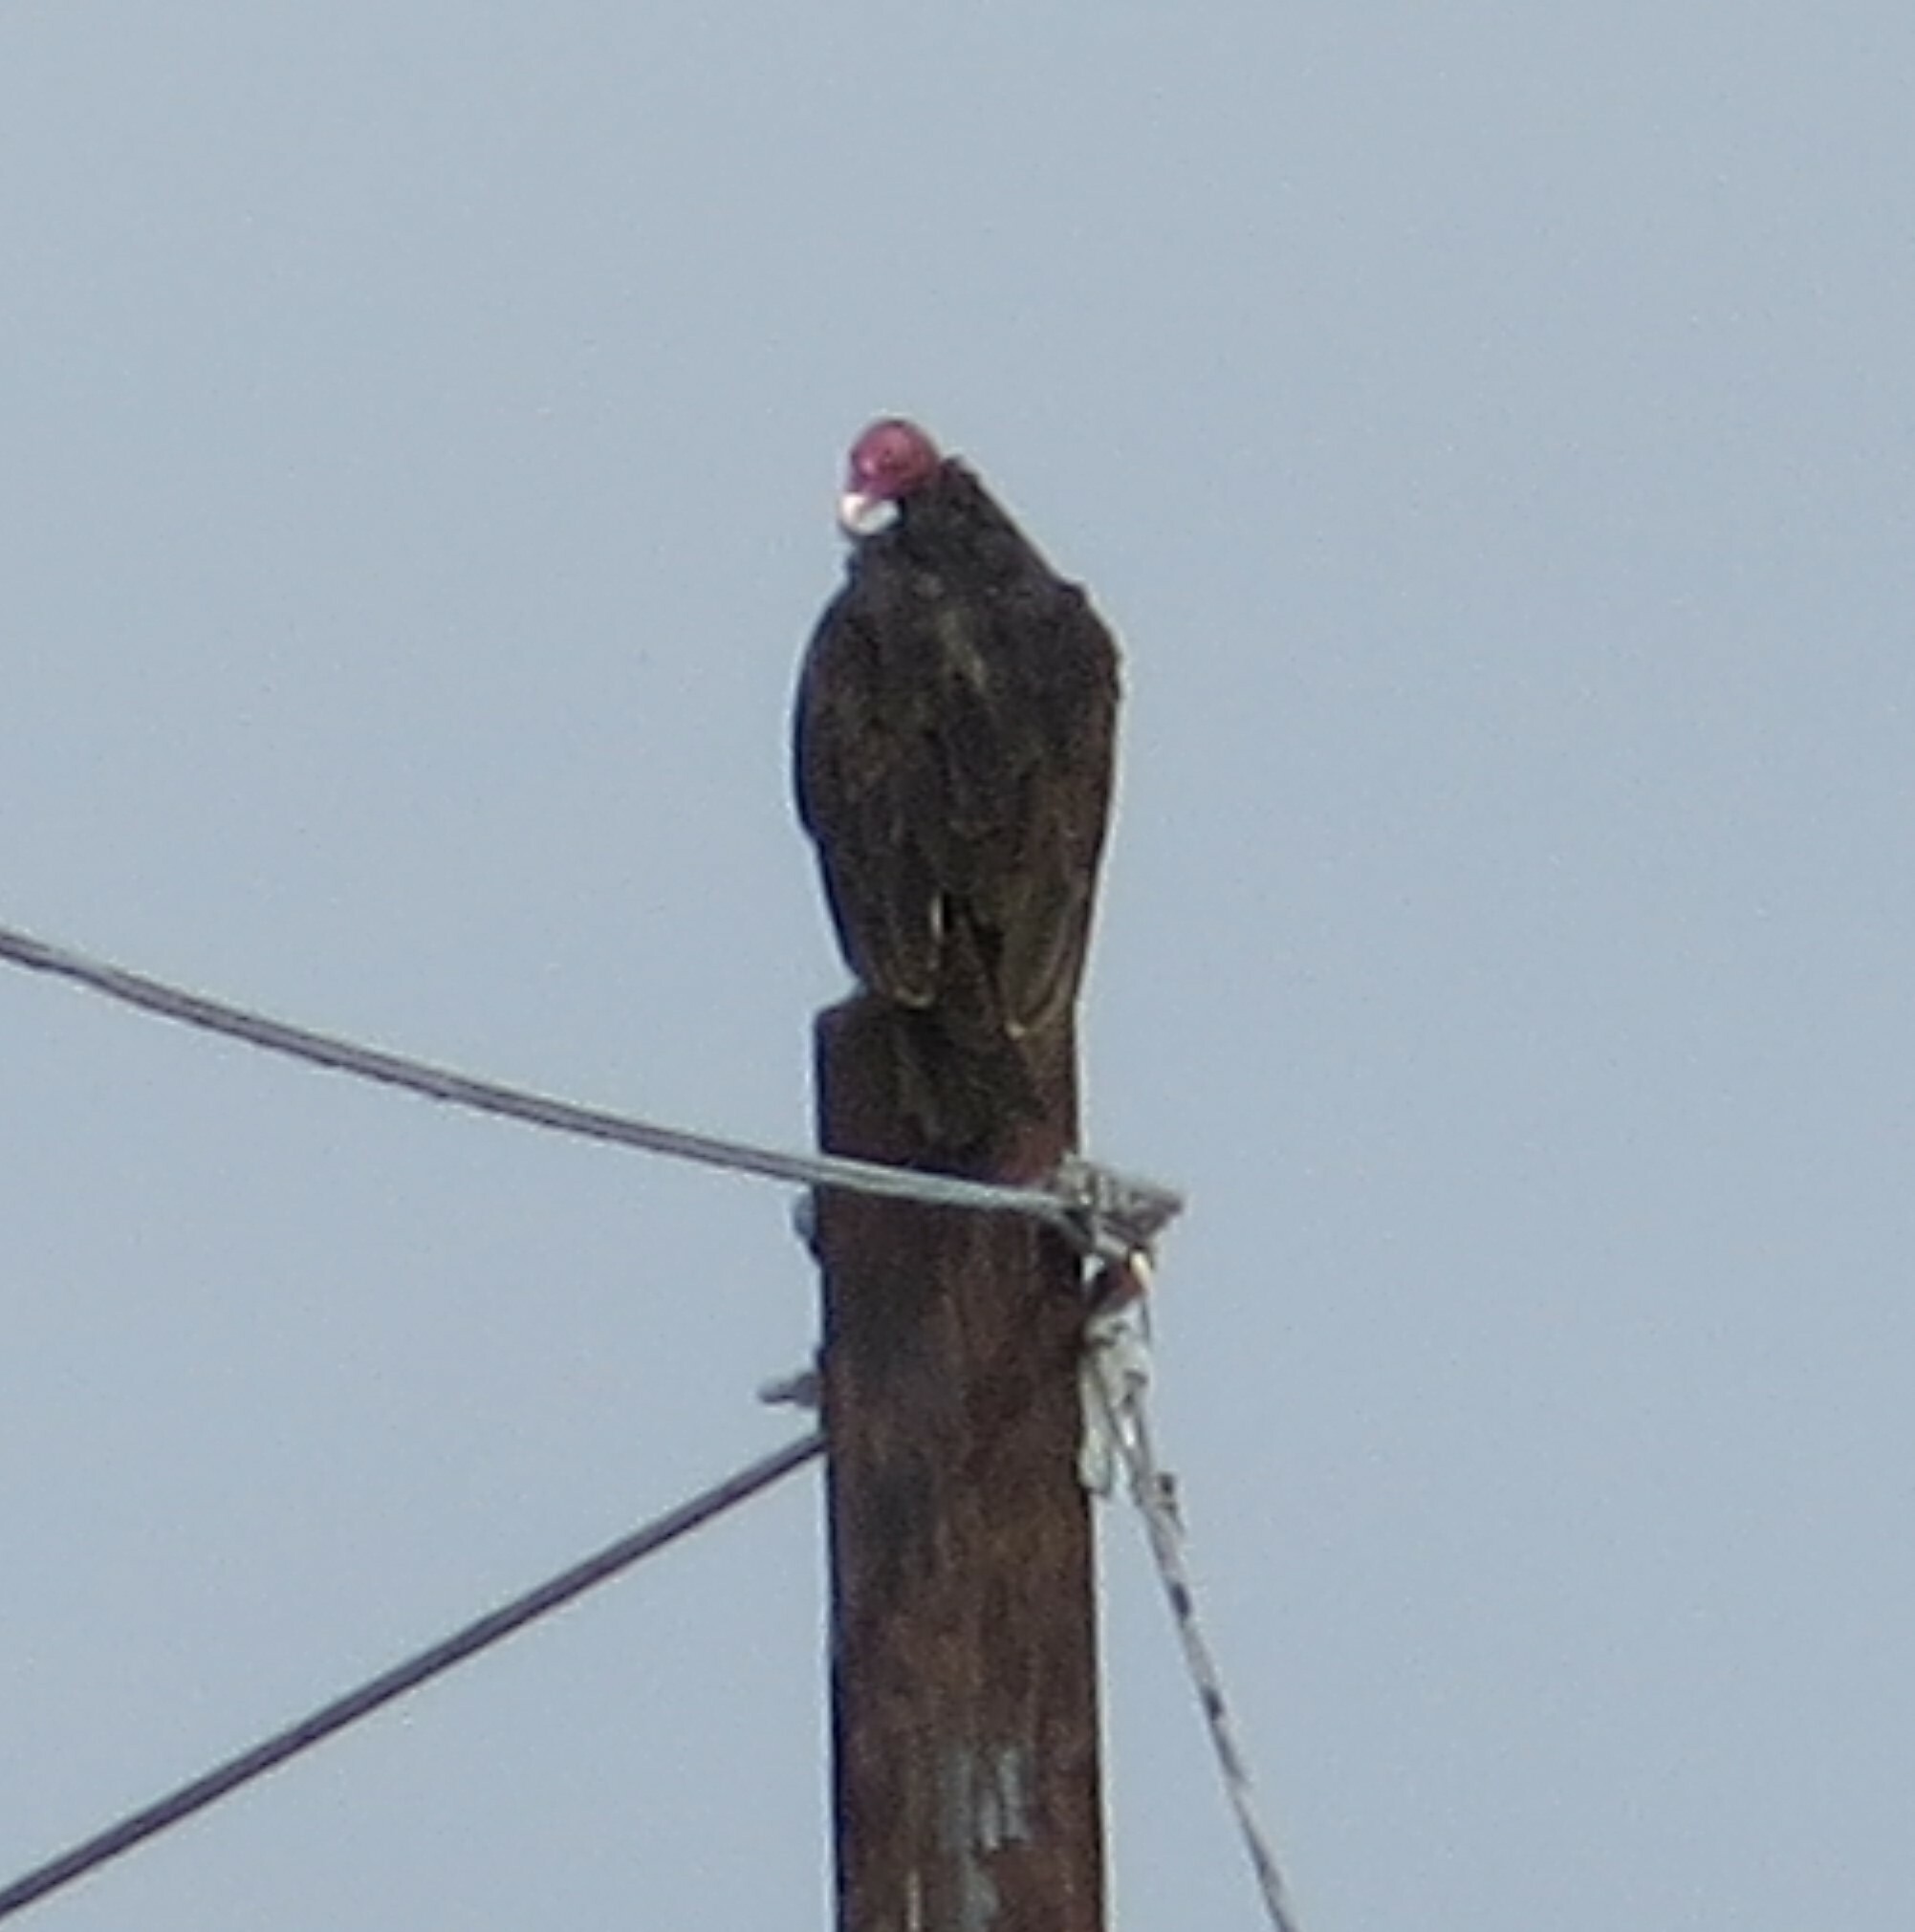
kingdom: Animalia
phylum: Chordata
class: Aves
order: Accipitriformes
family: Cathartidae
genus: Cathartes
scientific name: Cathartes aura
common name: Turkey vulture
